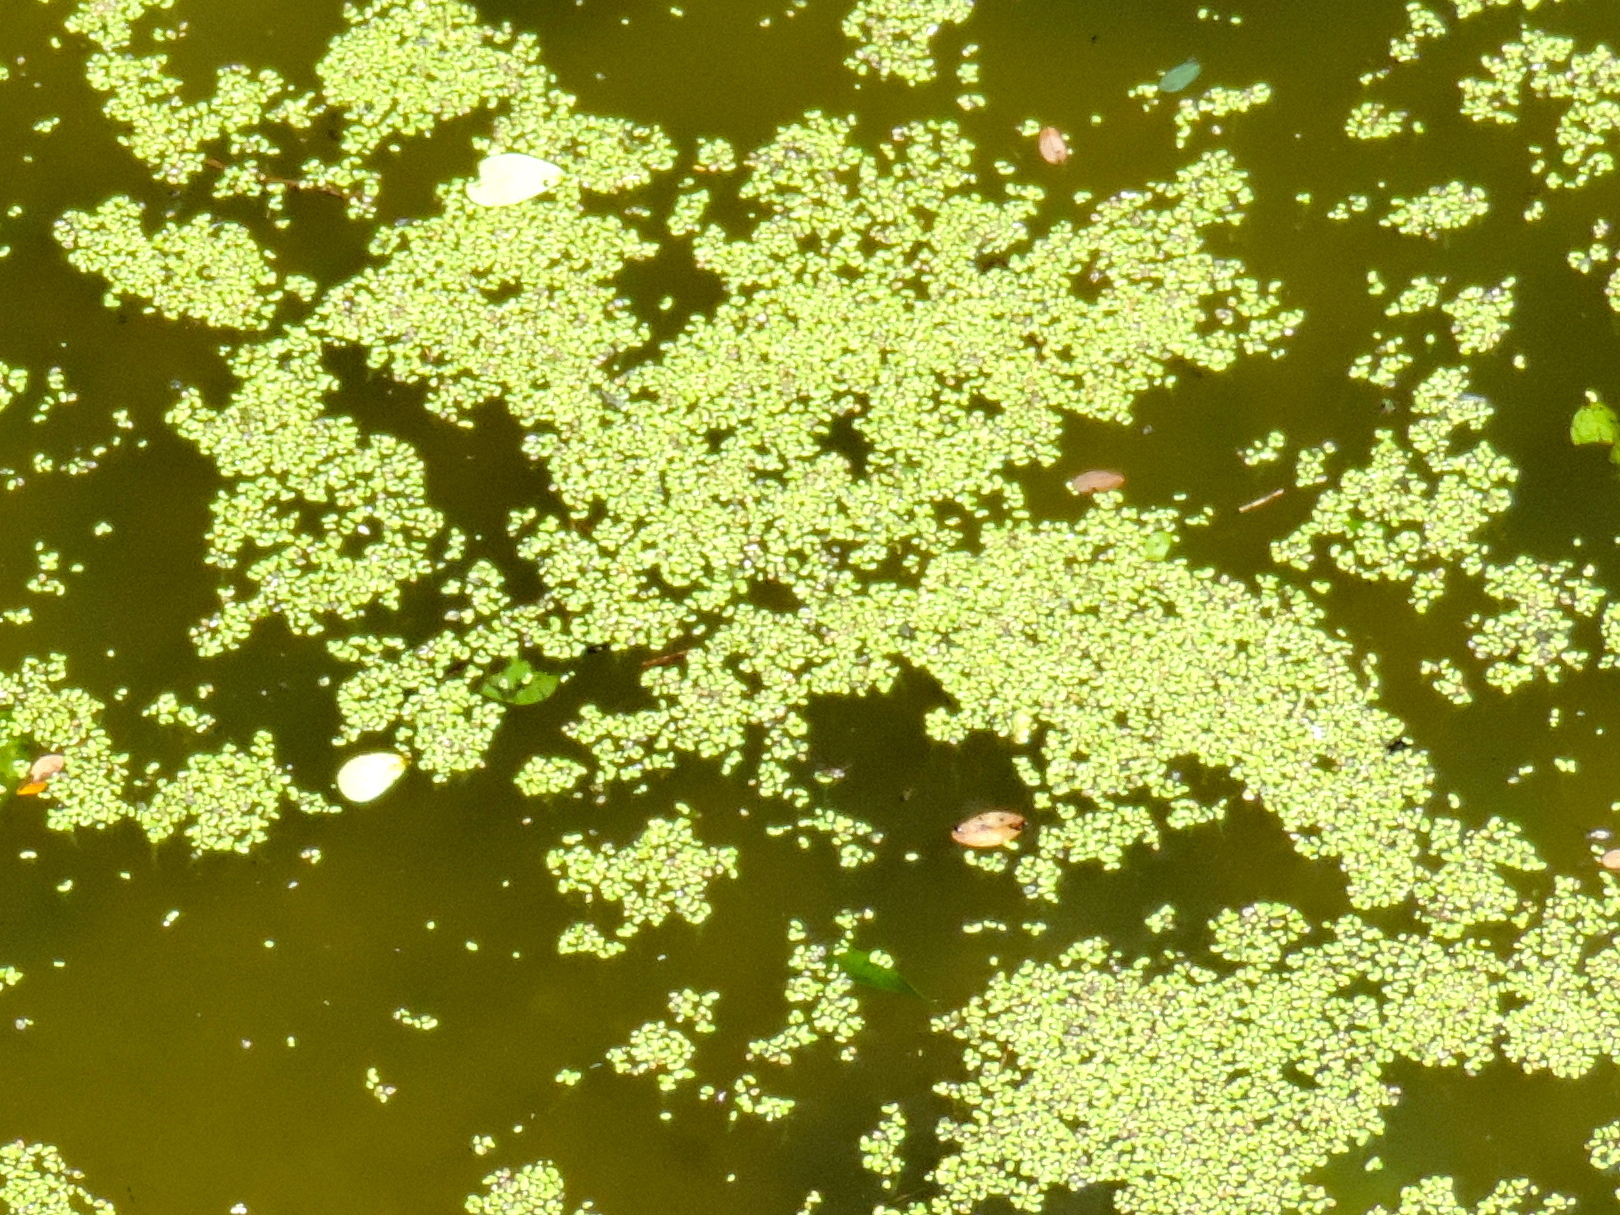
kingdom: Plantae
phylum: Tracheophyta
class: Liliopsida
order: Alismatales
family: Araceae
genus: Lemna
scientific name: Lemna
